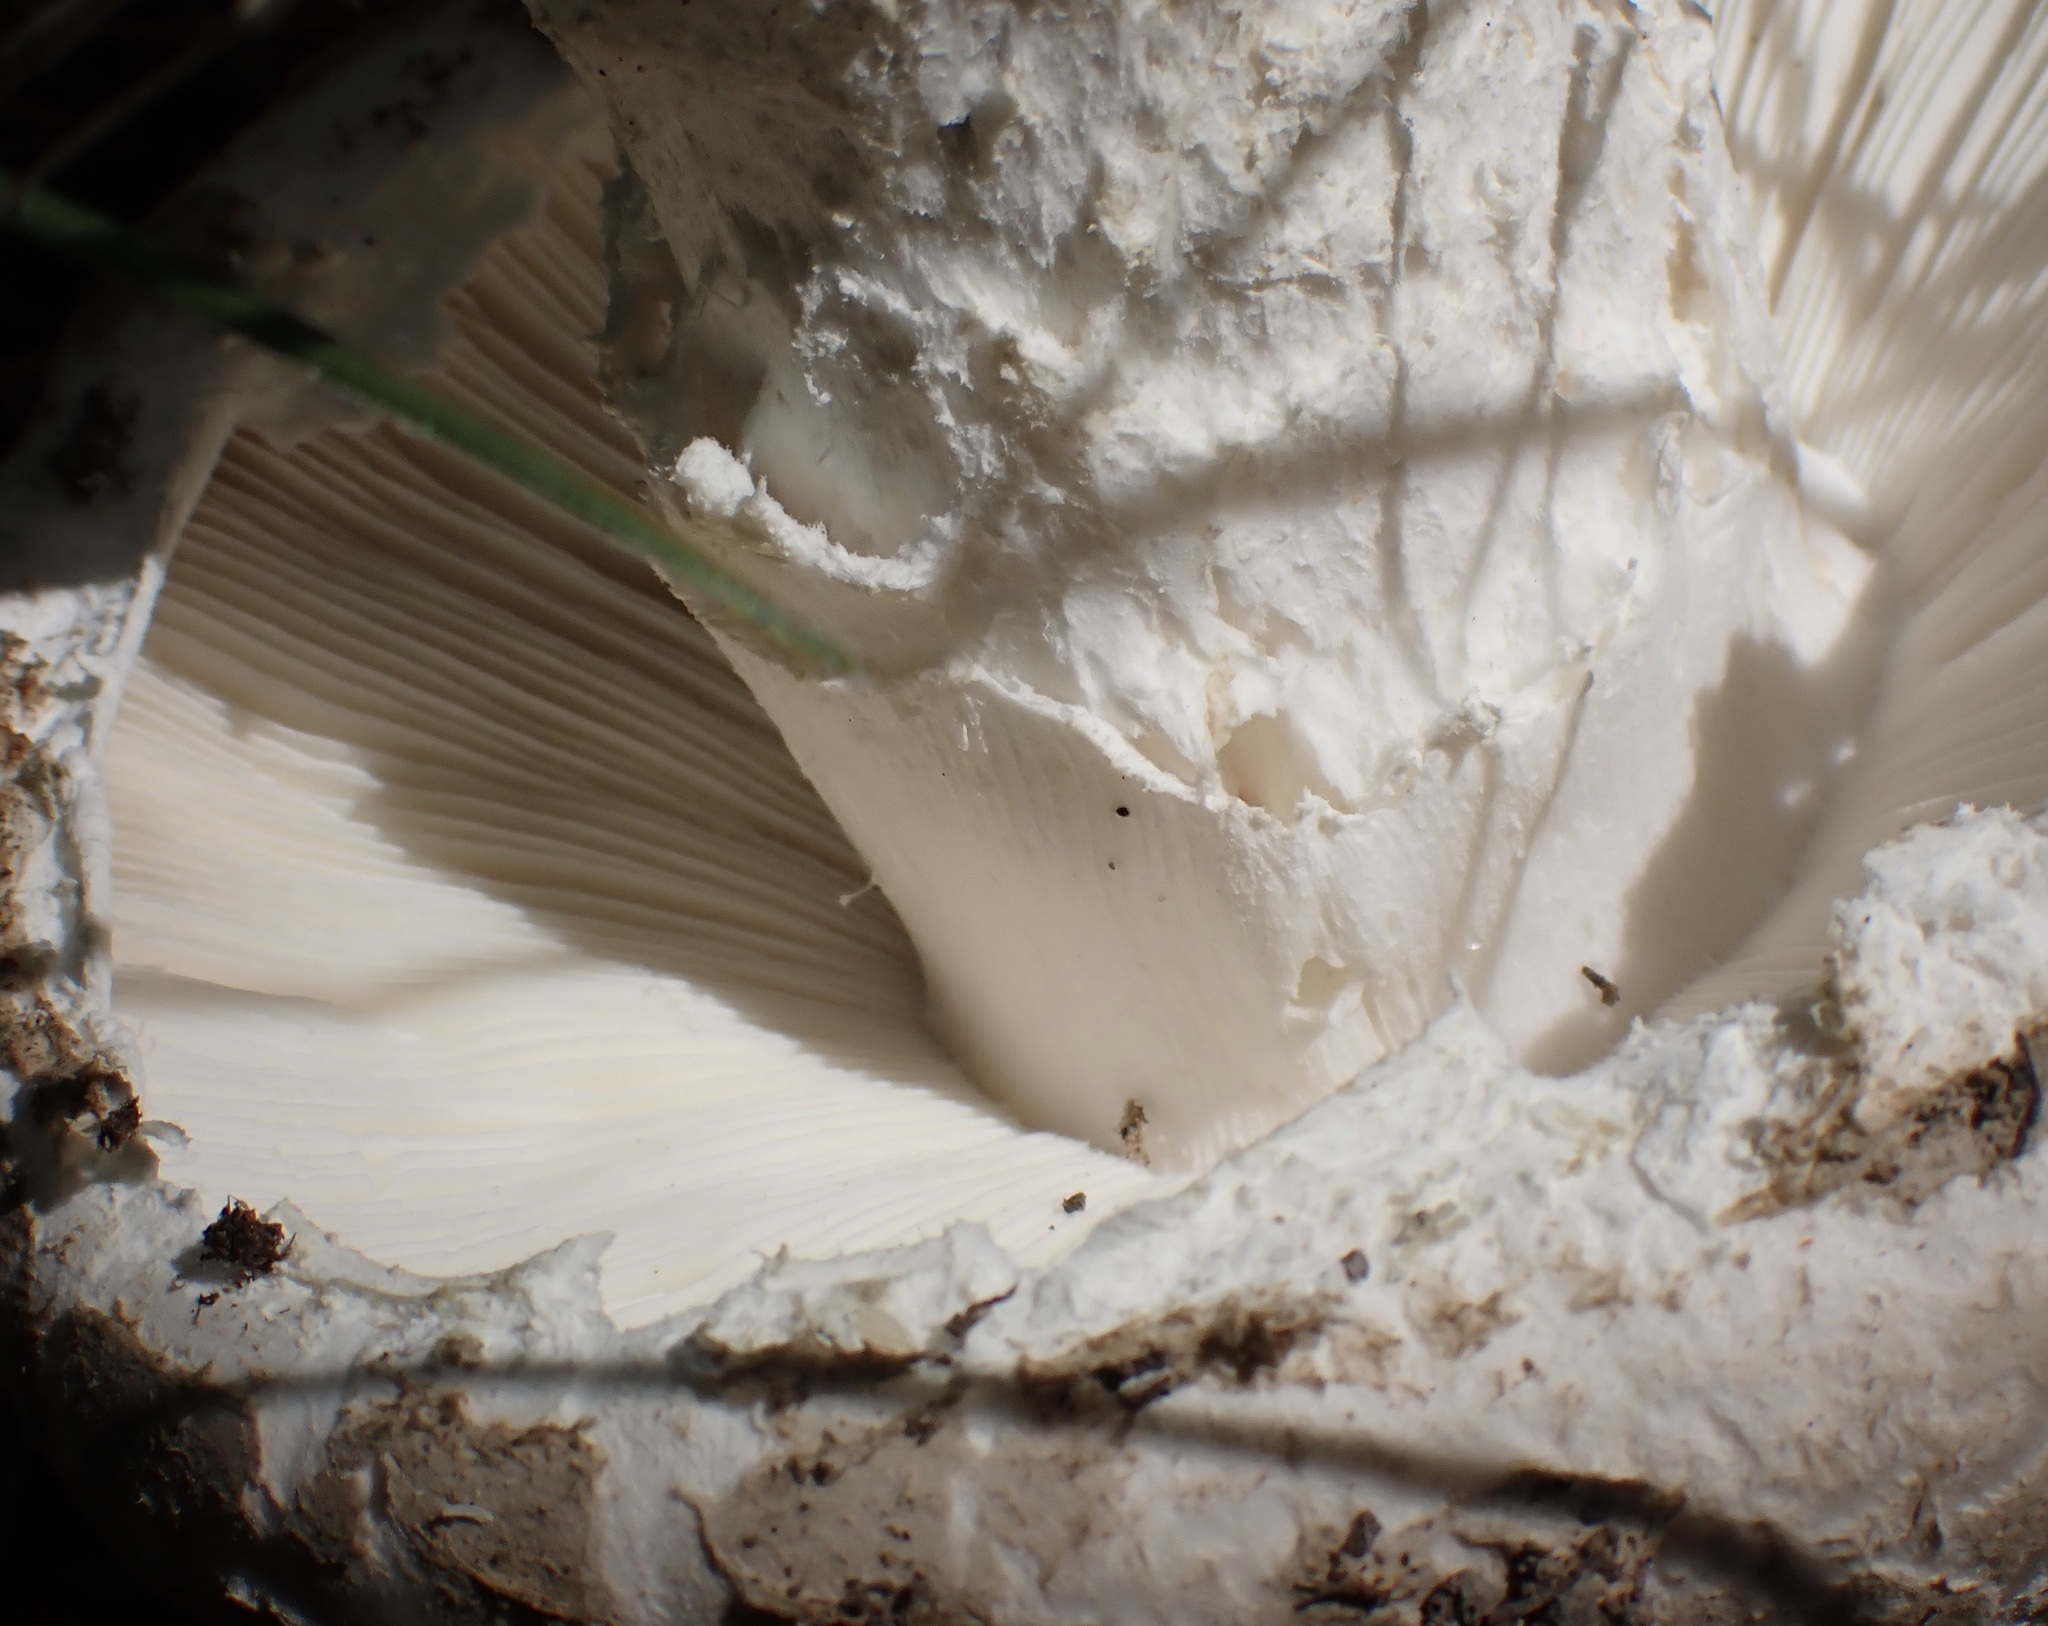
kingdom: Fungi
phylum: Basidiomycota
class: Agaricomycetes
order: Agaricales
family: Amanitaceae
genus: Amanita
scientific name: Amanita strobiliformis
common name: Warted amanita
